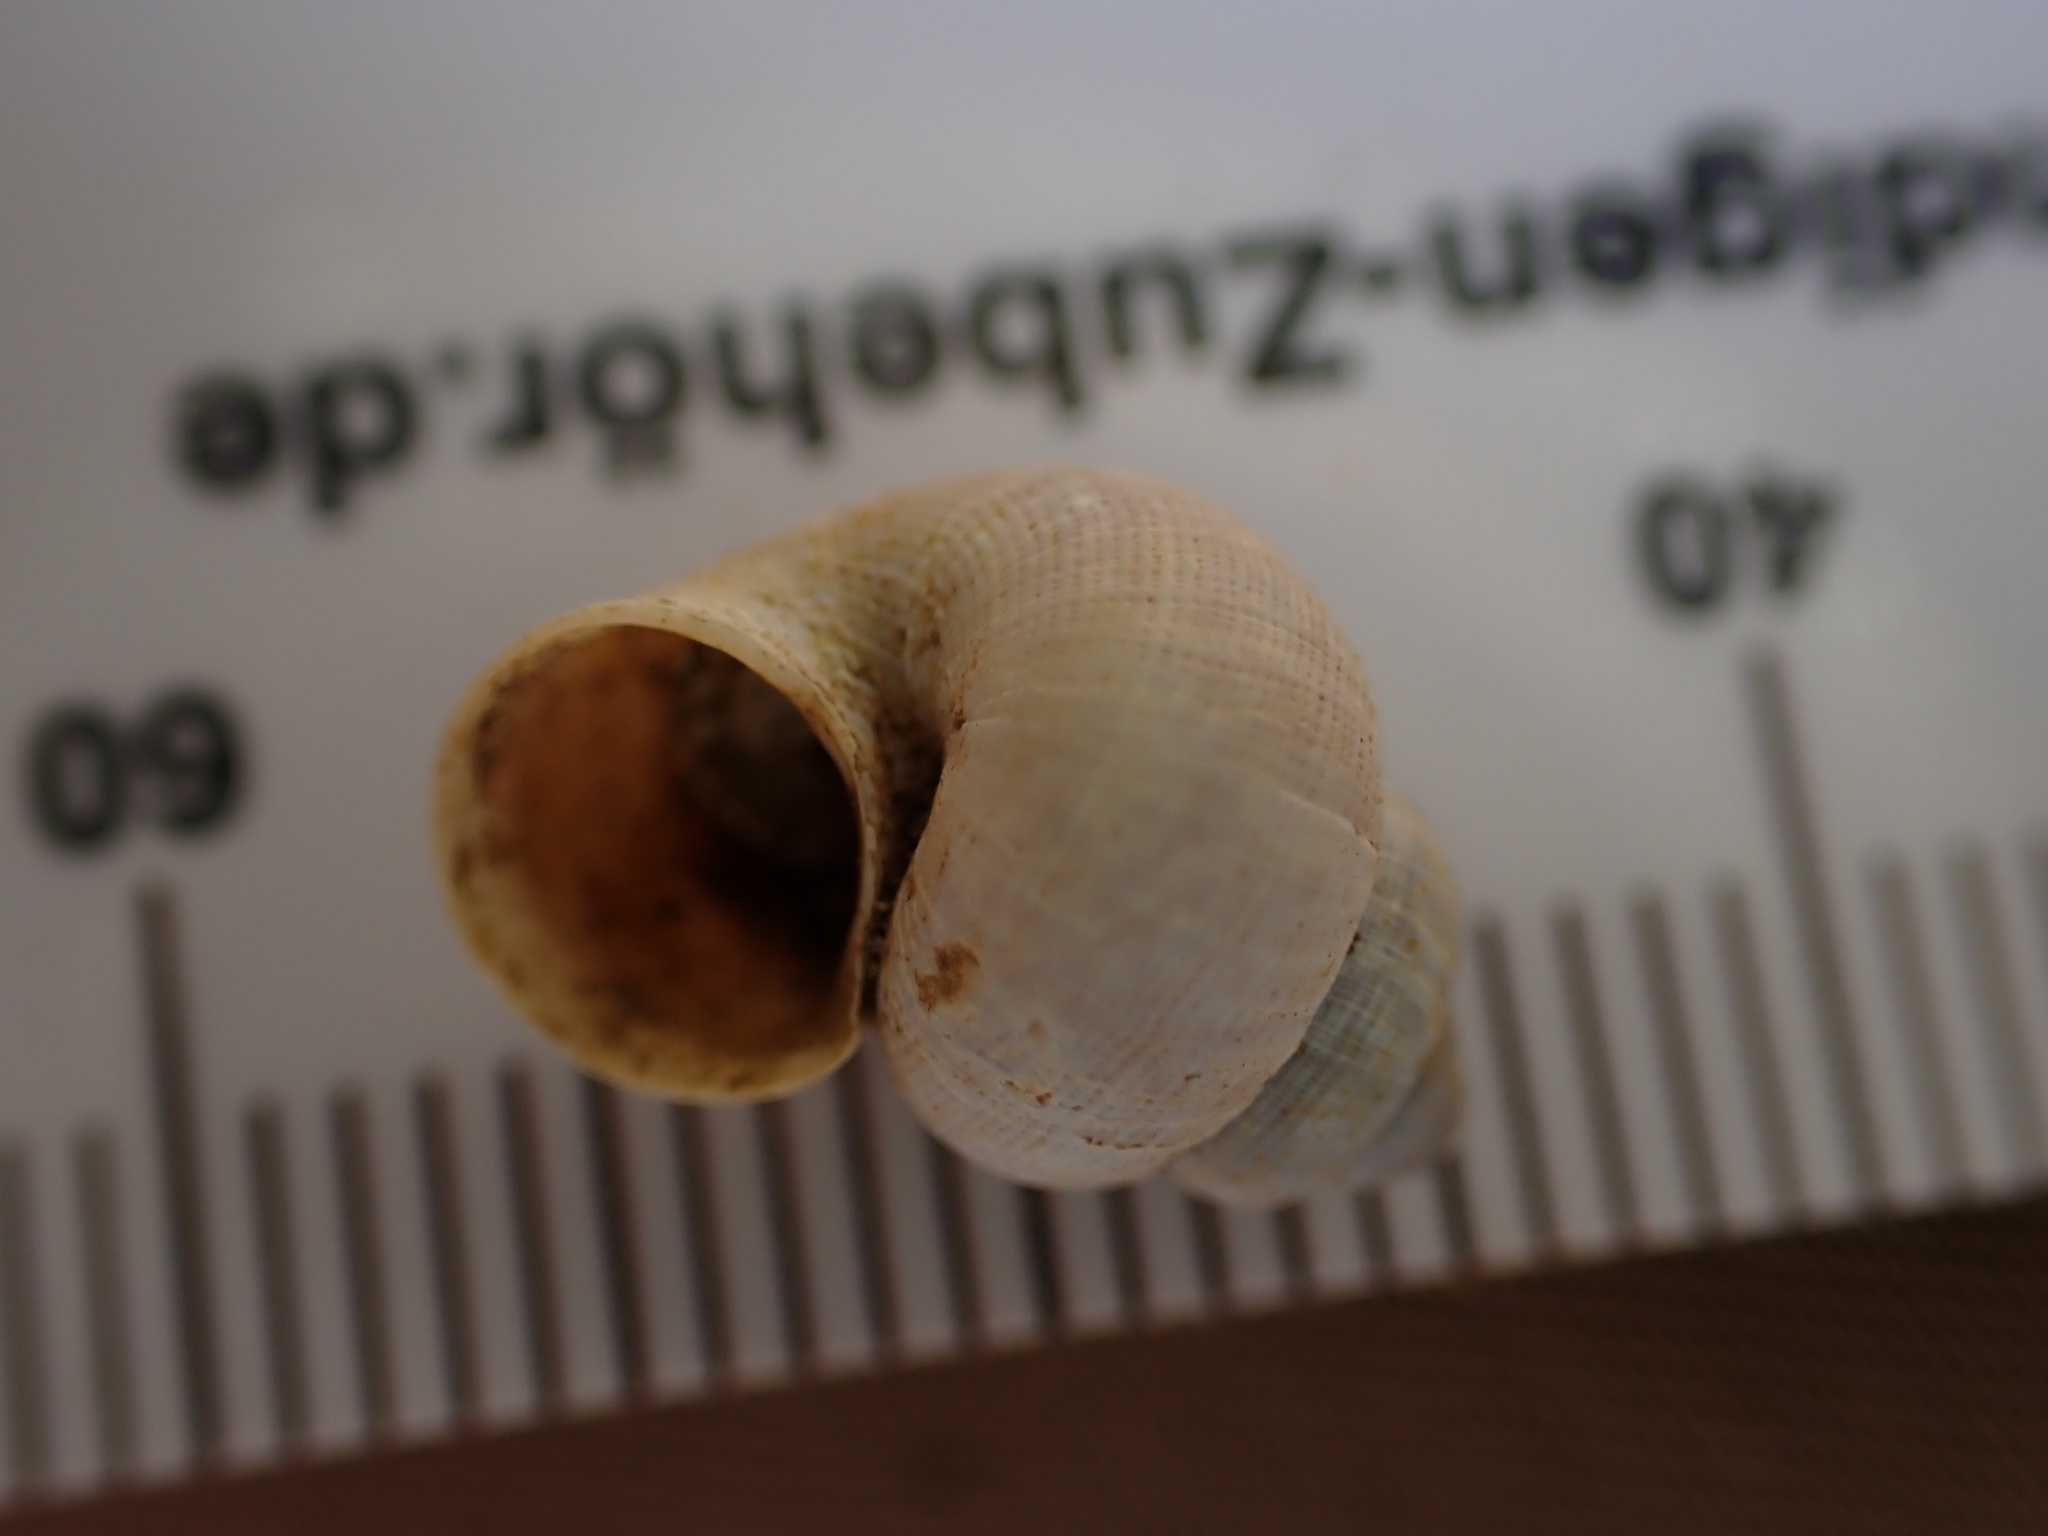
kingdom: Animalia
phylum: Mollusca
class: Gastropoda
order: Littorinimorpha
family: Pomatiidae
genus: Pomatias
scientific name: Pomatias elegans
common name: Red-mouthed snail
